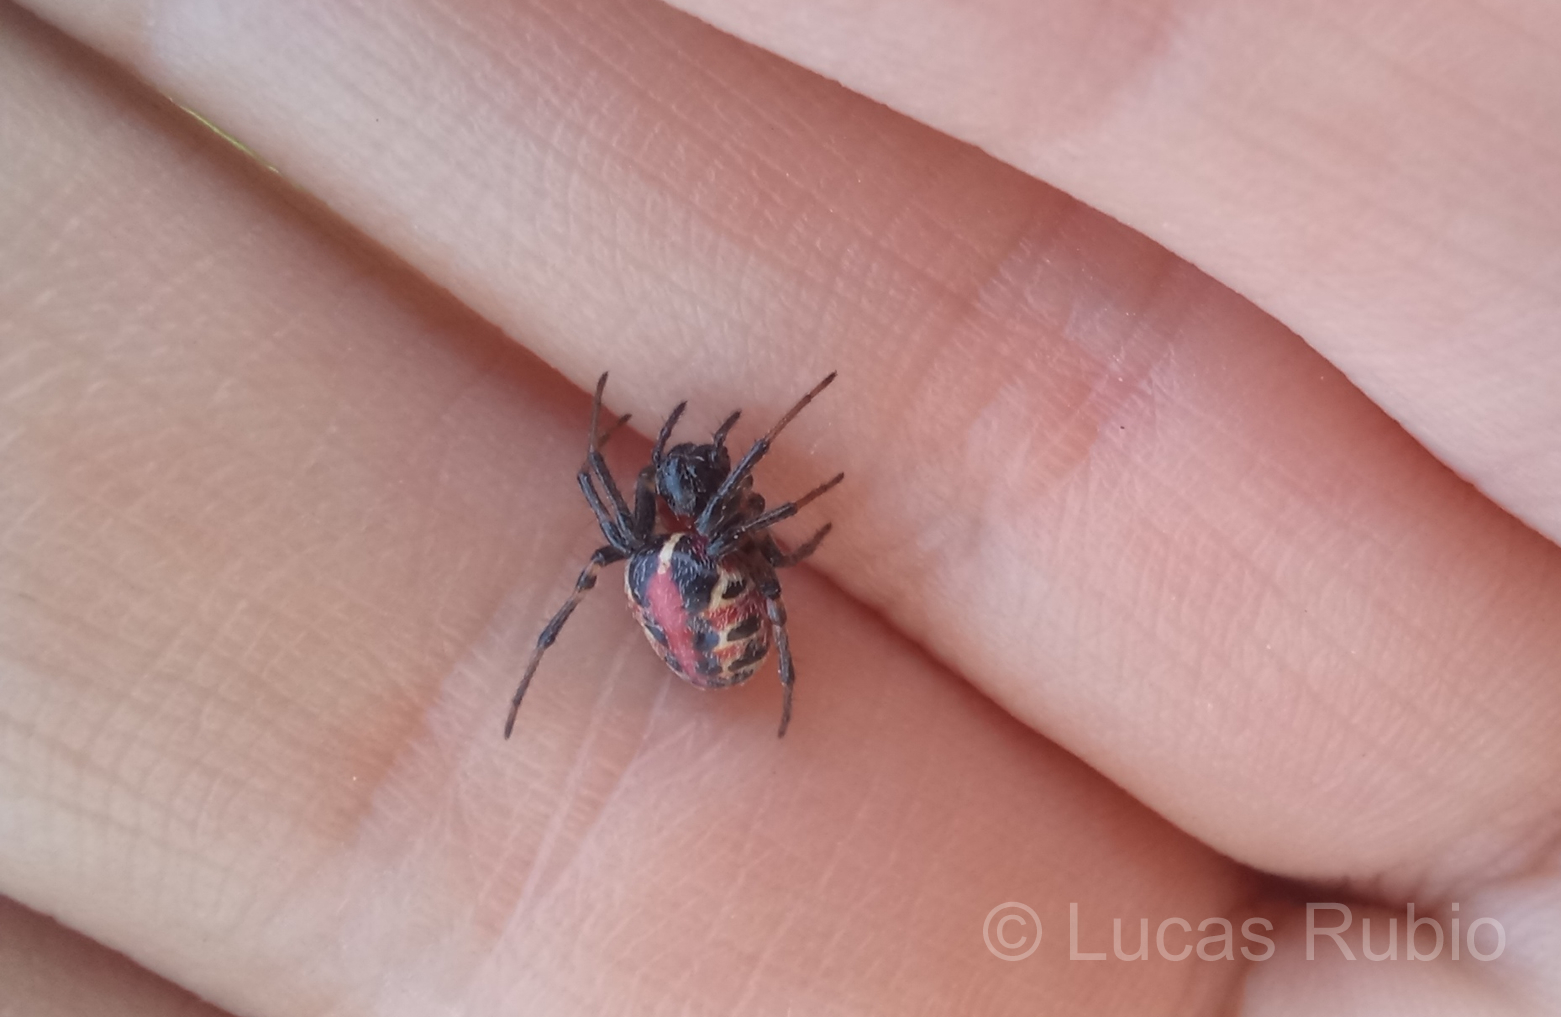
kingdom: Animalia
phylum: Arthropoda
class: Arachnida
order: Araneae
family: Araneidae
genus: Alpaida
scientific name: Alpaida versicolor
